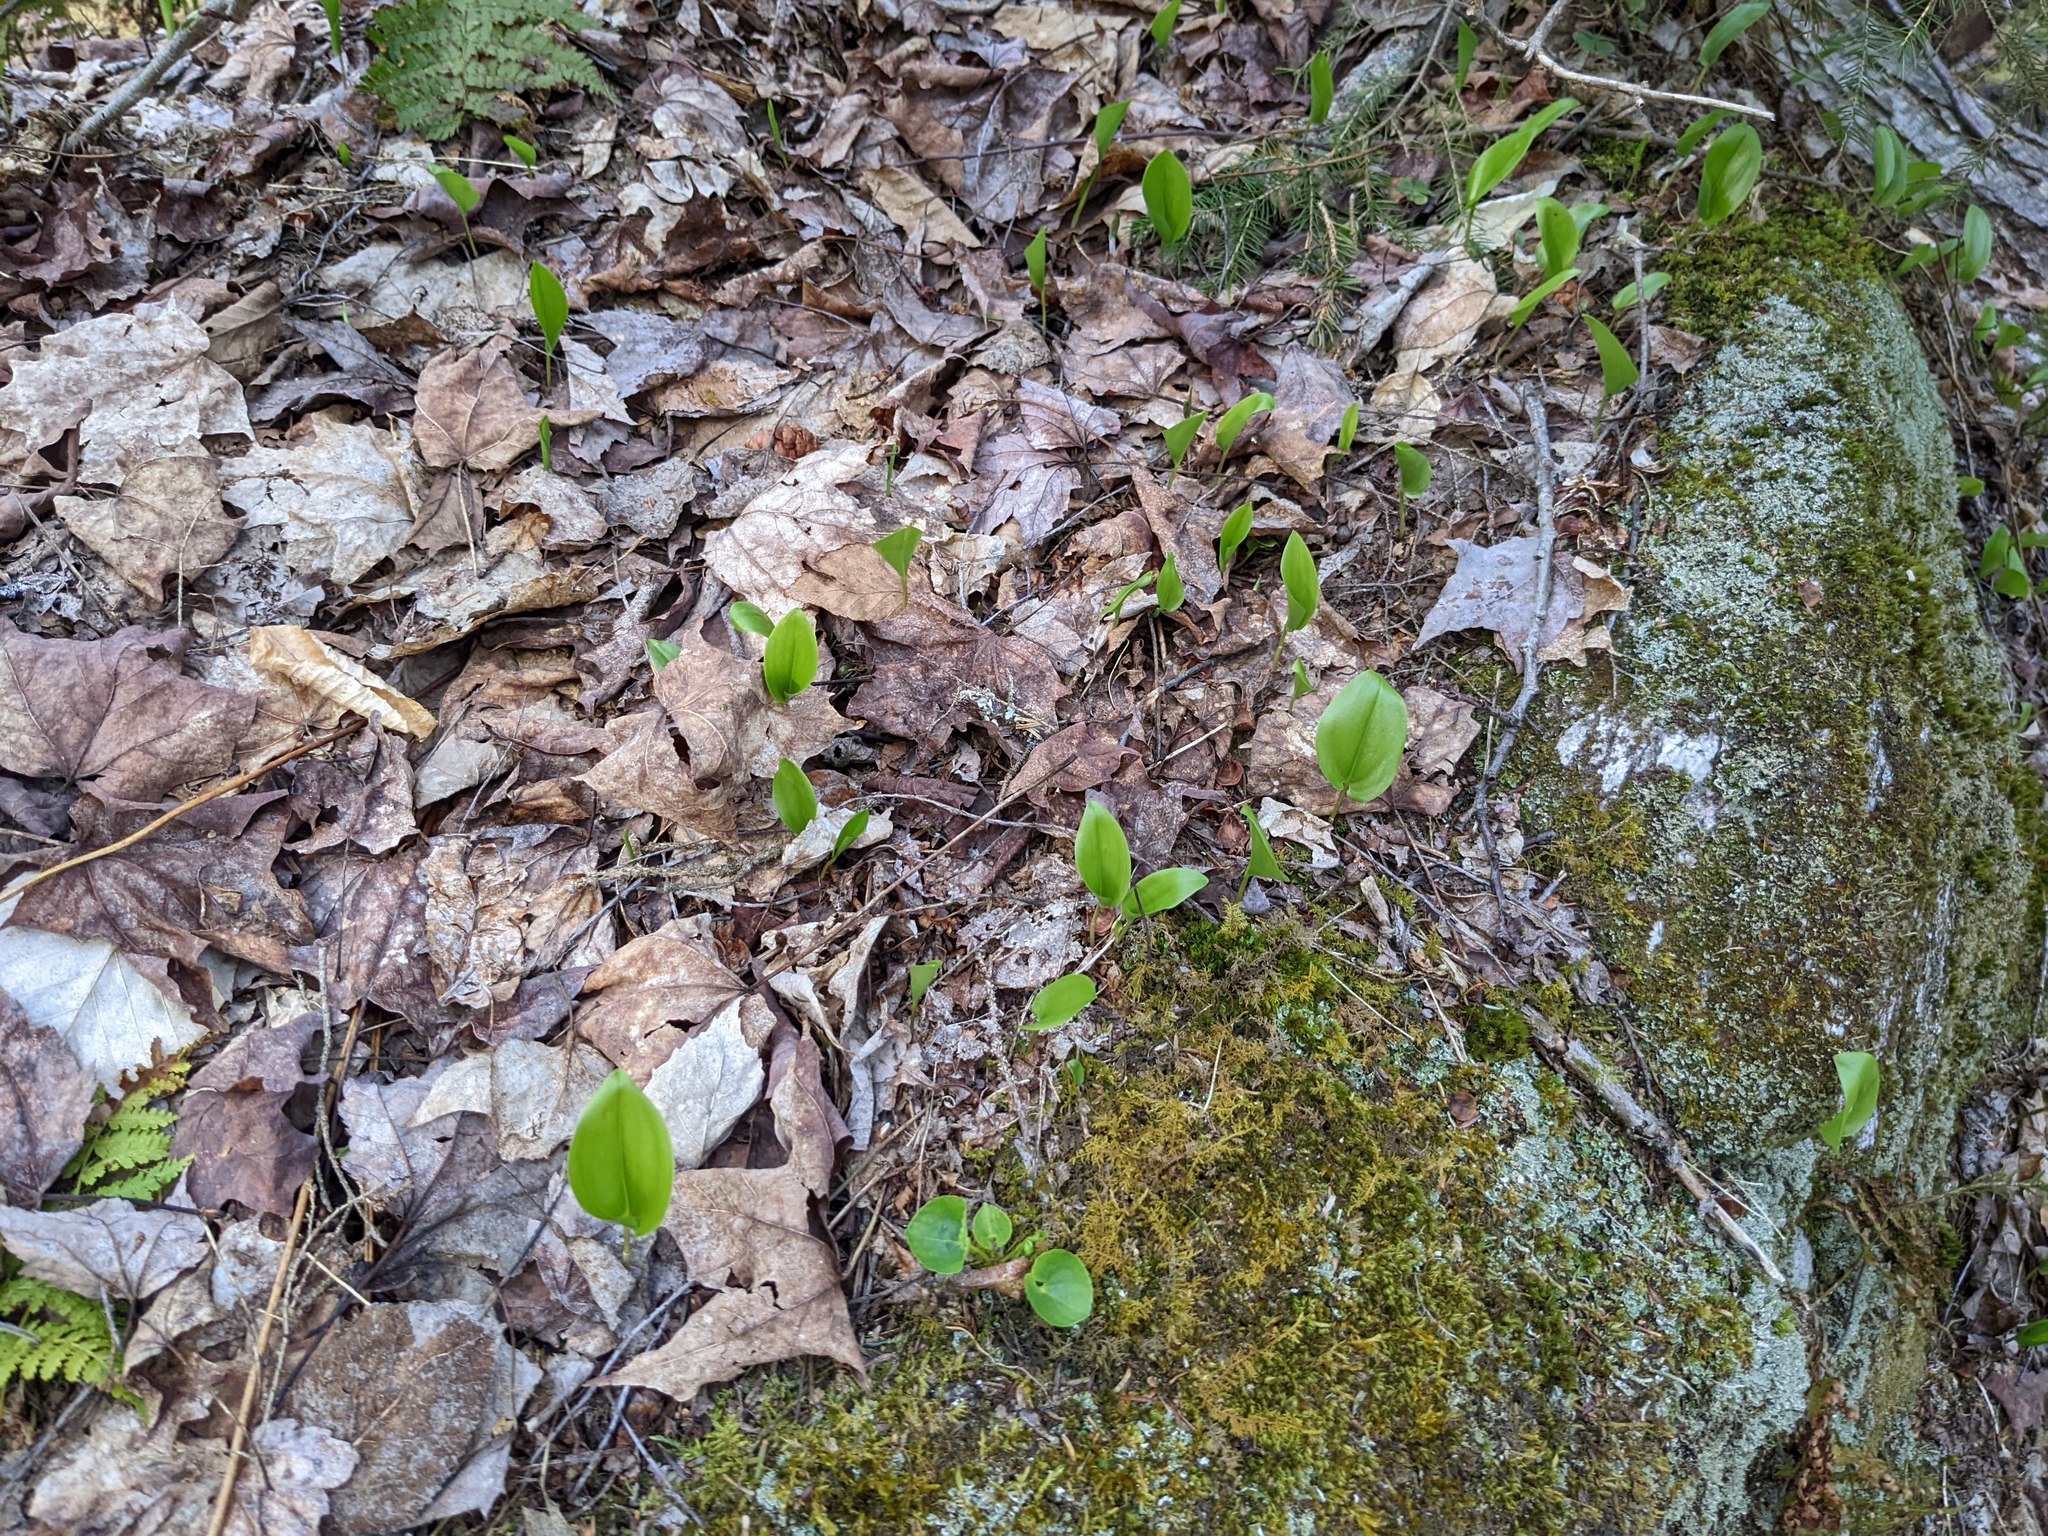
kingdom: Plantae
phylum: Tracheophyta
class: Liliopsida
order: Asparagales
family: Asparagaceae
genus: Maianthemum
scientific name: Maianthemum canadense
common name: False lily-of-the-valley
